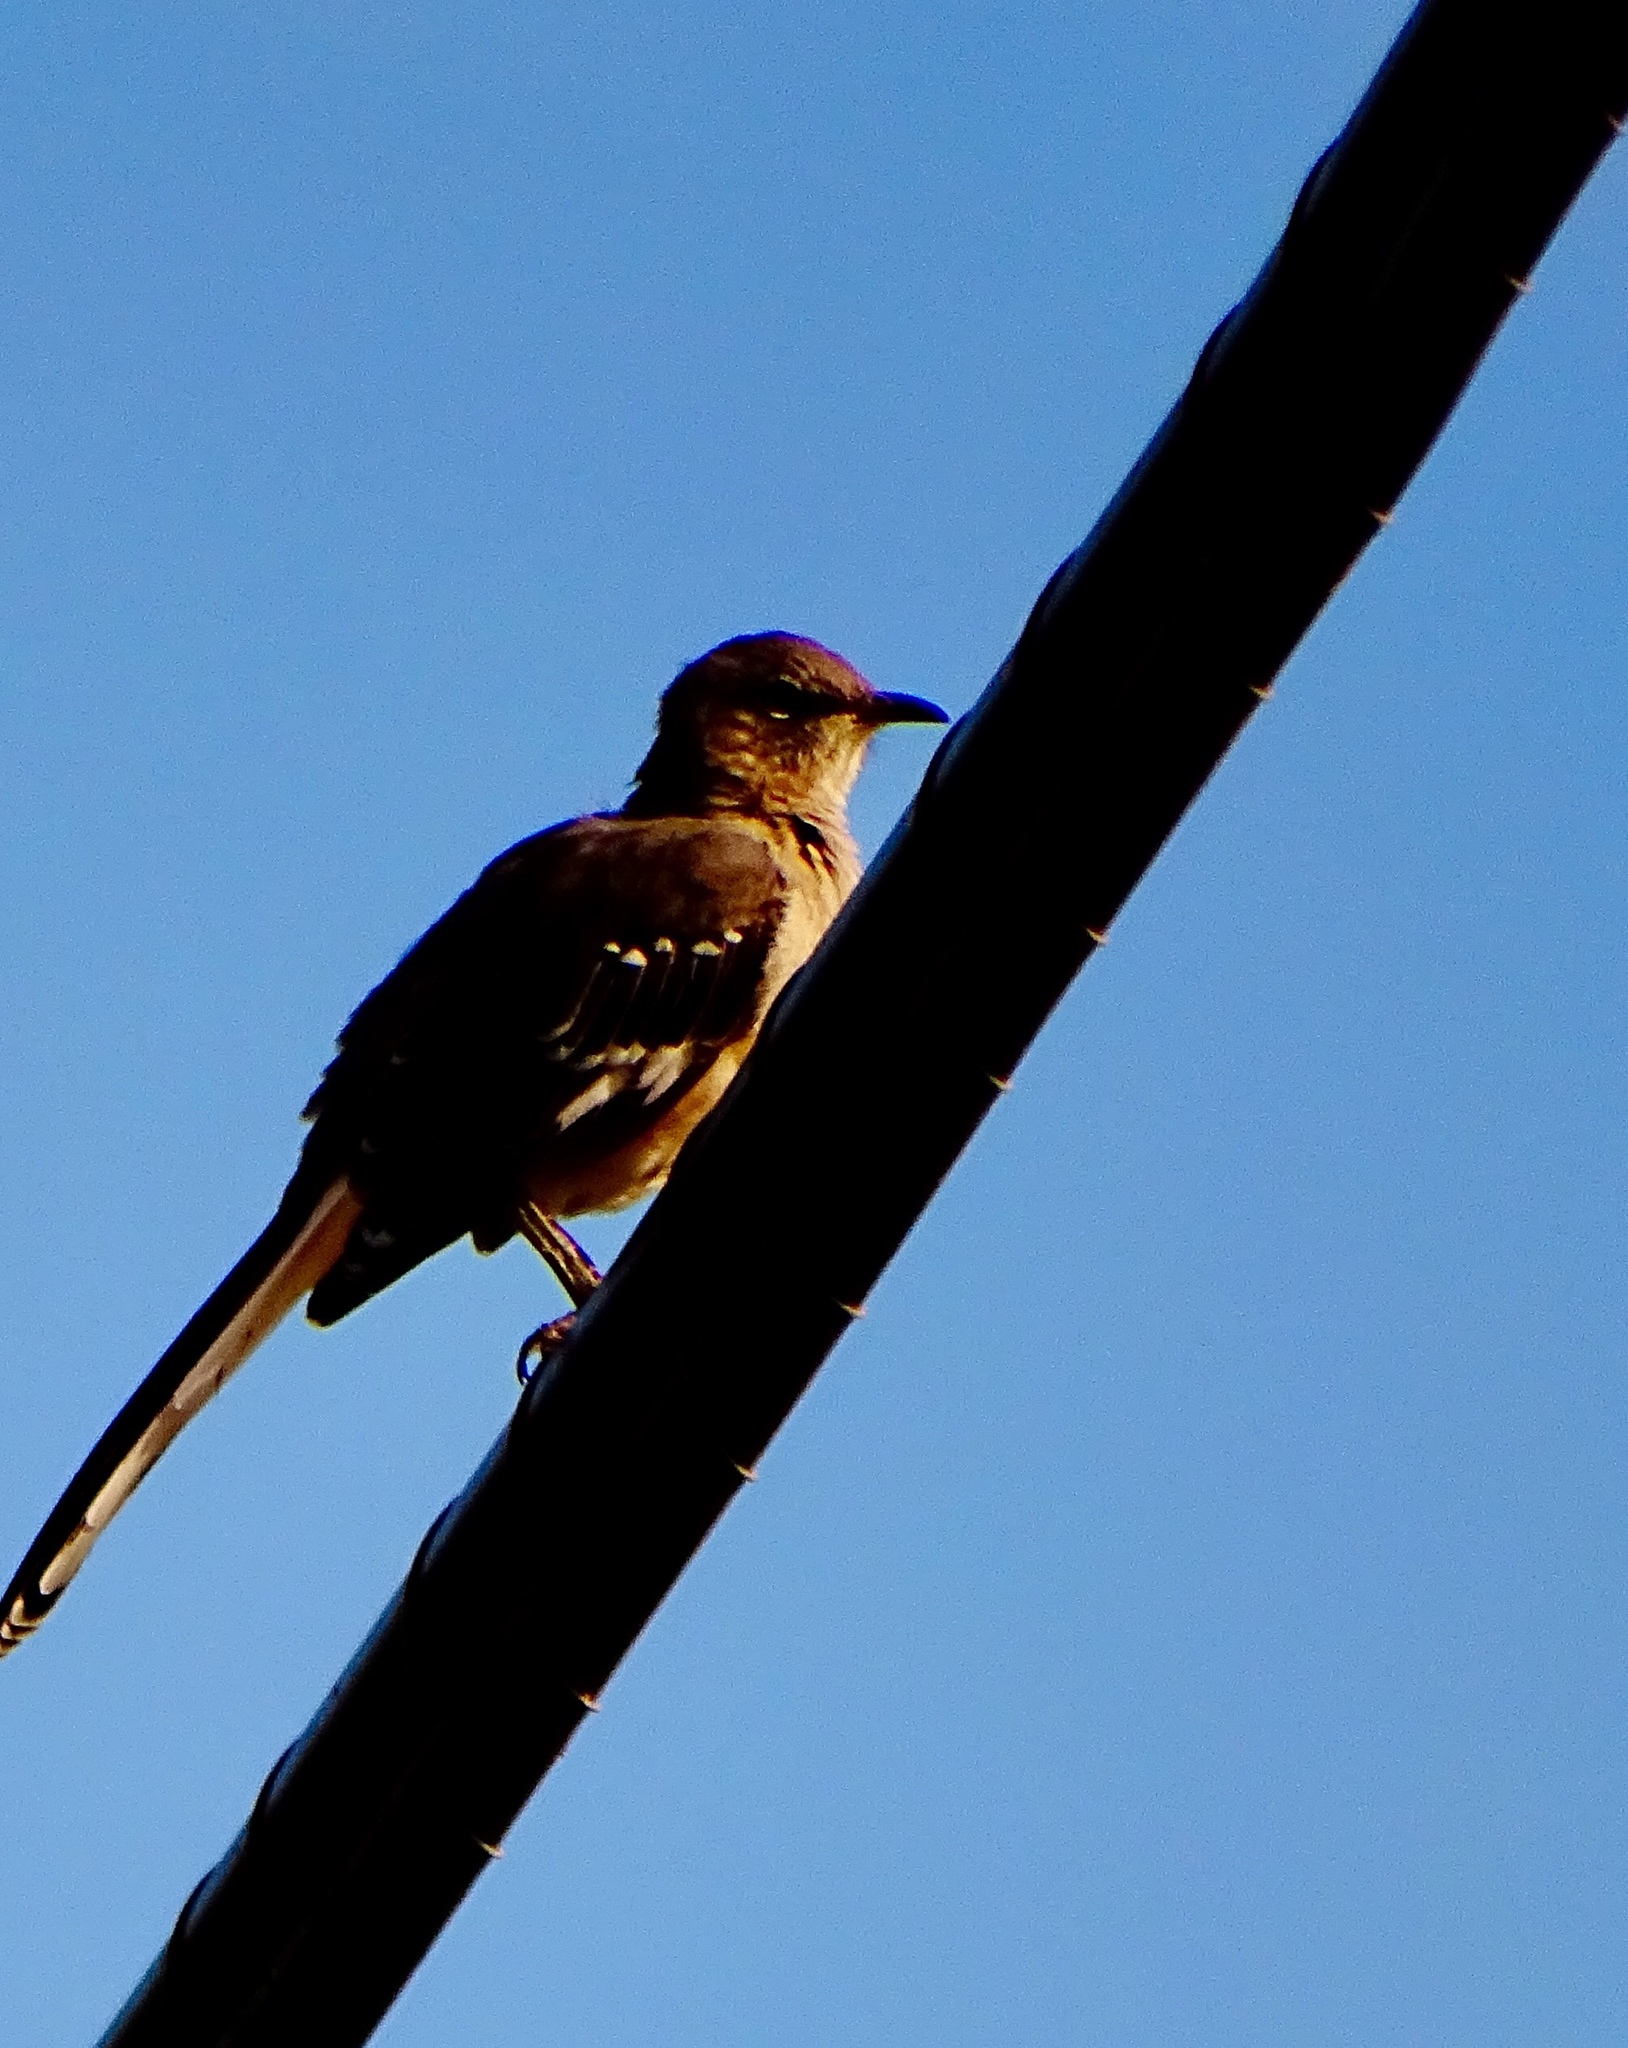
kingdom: Animalia
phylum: Chordata
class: Aves
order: Passeriformes
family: Mimidae
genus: Mimus
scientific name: Mimus polyglottos
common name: Northern mockingbird
